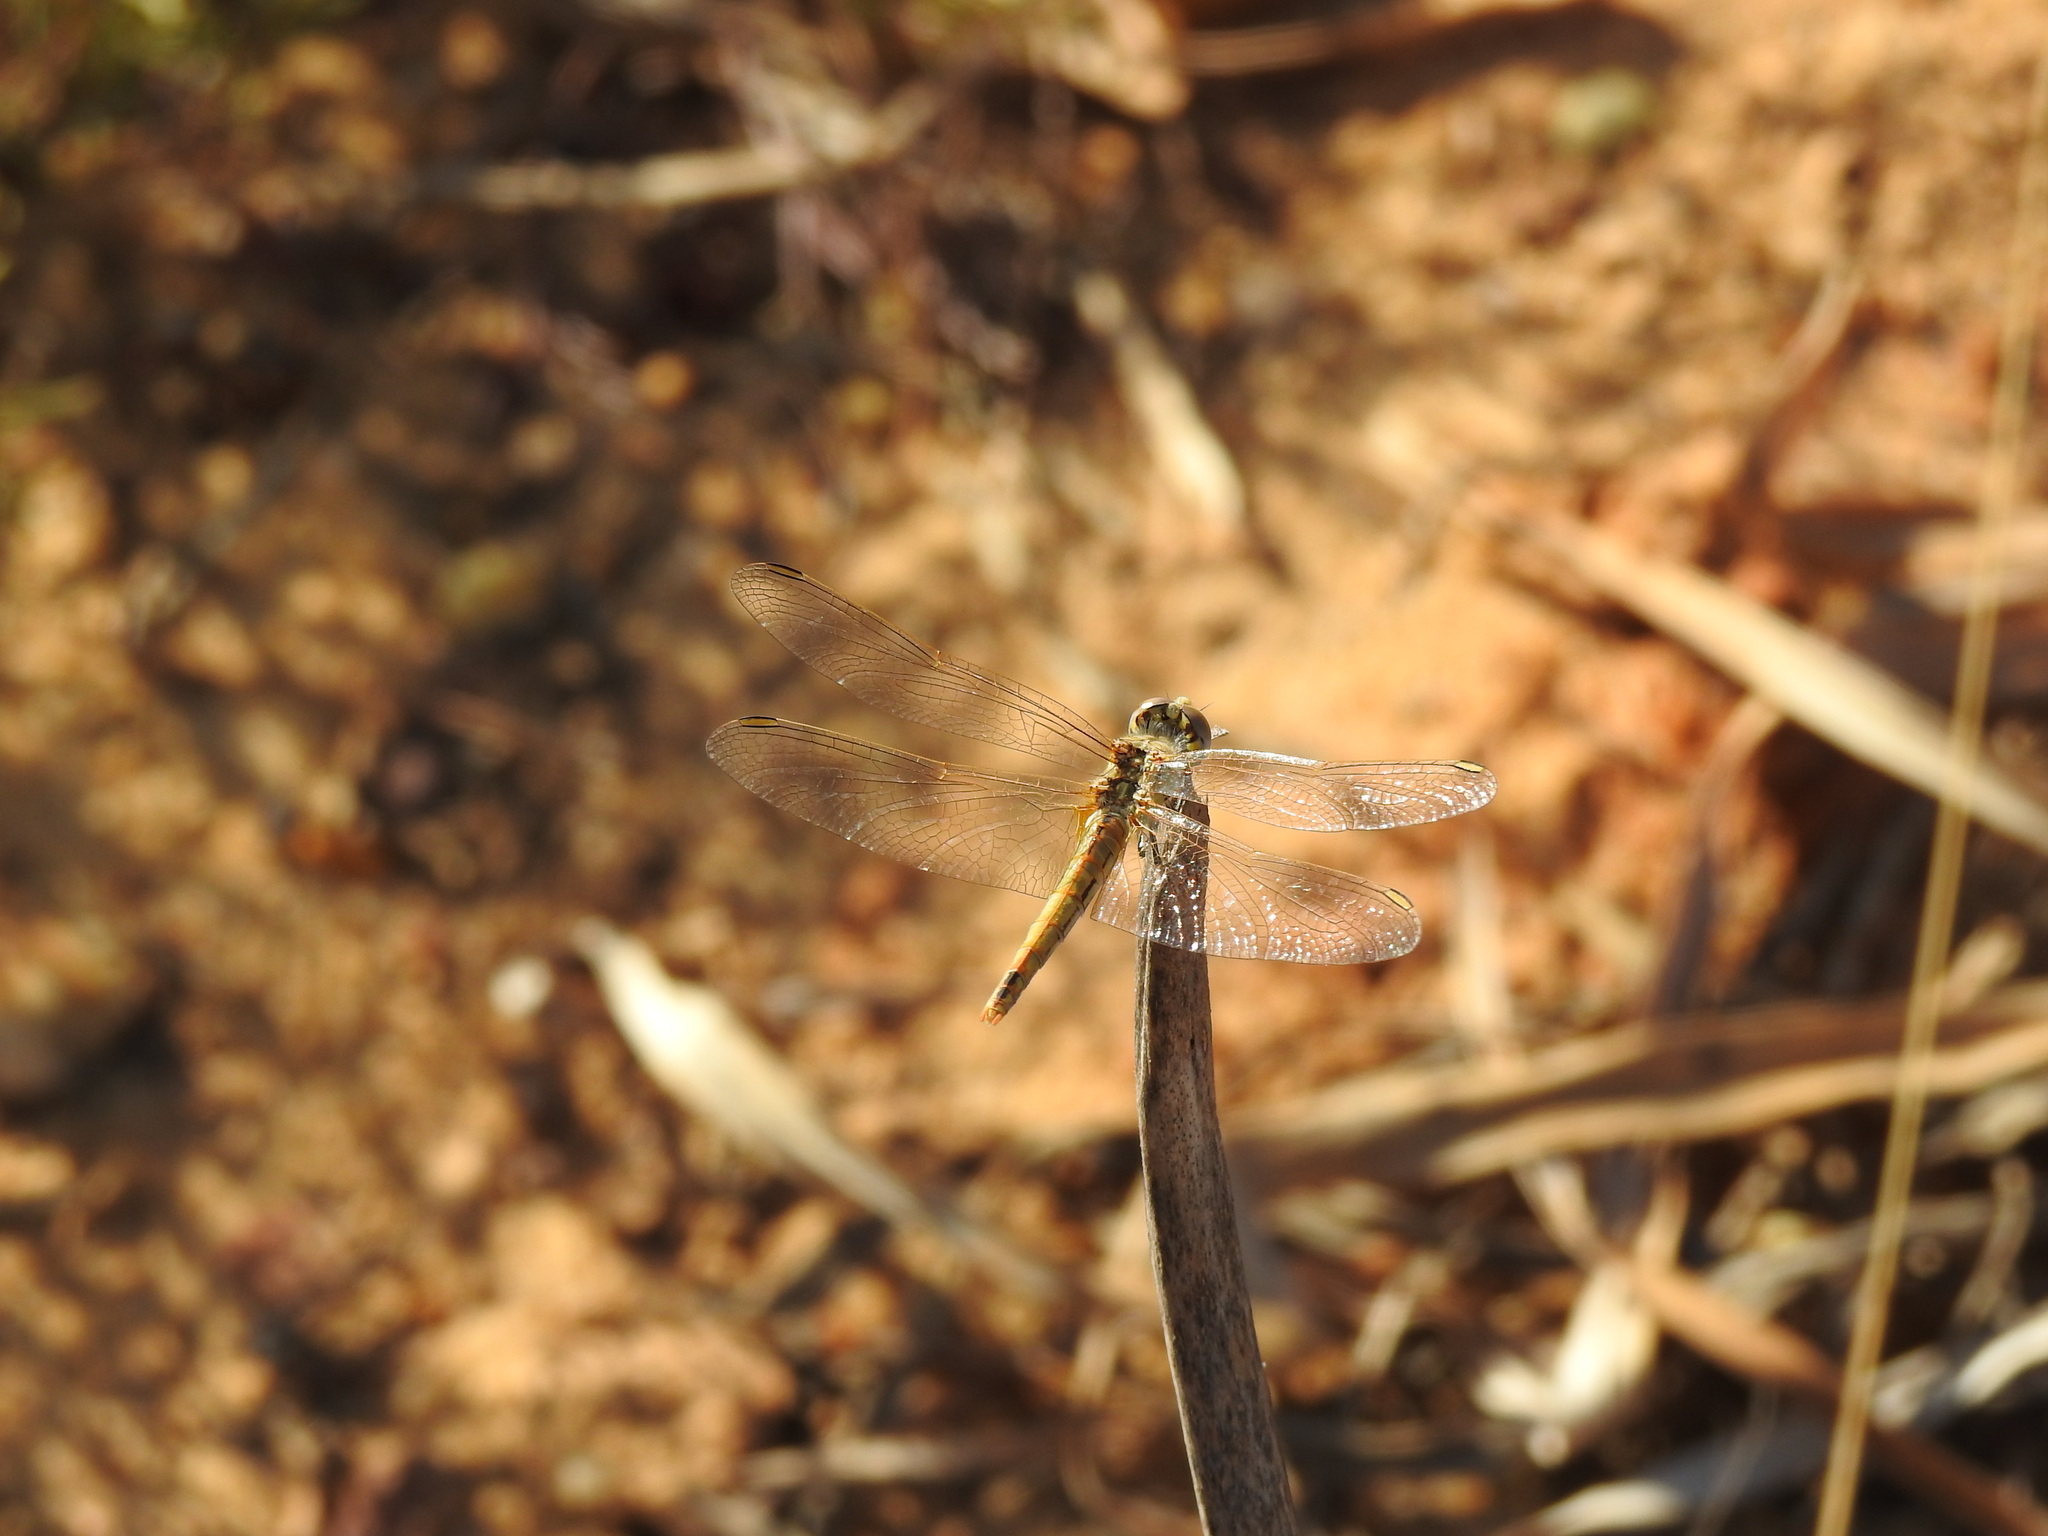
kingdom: Animalia
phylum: Arthropoda
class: Insecta
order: Odonata
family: Libellulidae
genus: Sympetrum
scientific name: Sympetrum fonscolombii
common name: Red-veined darter
